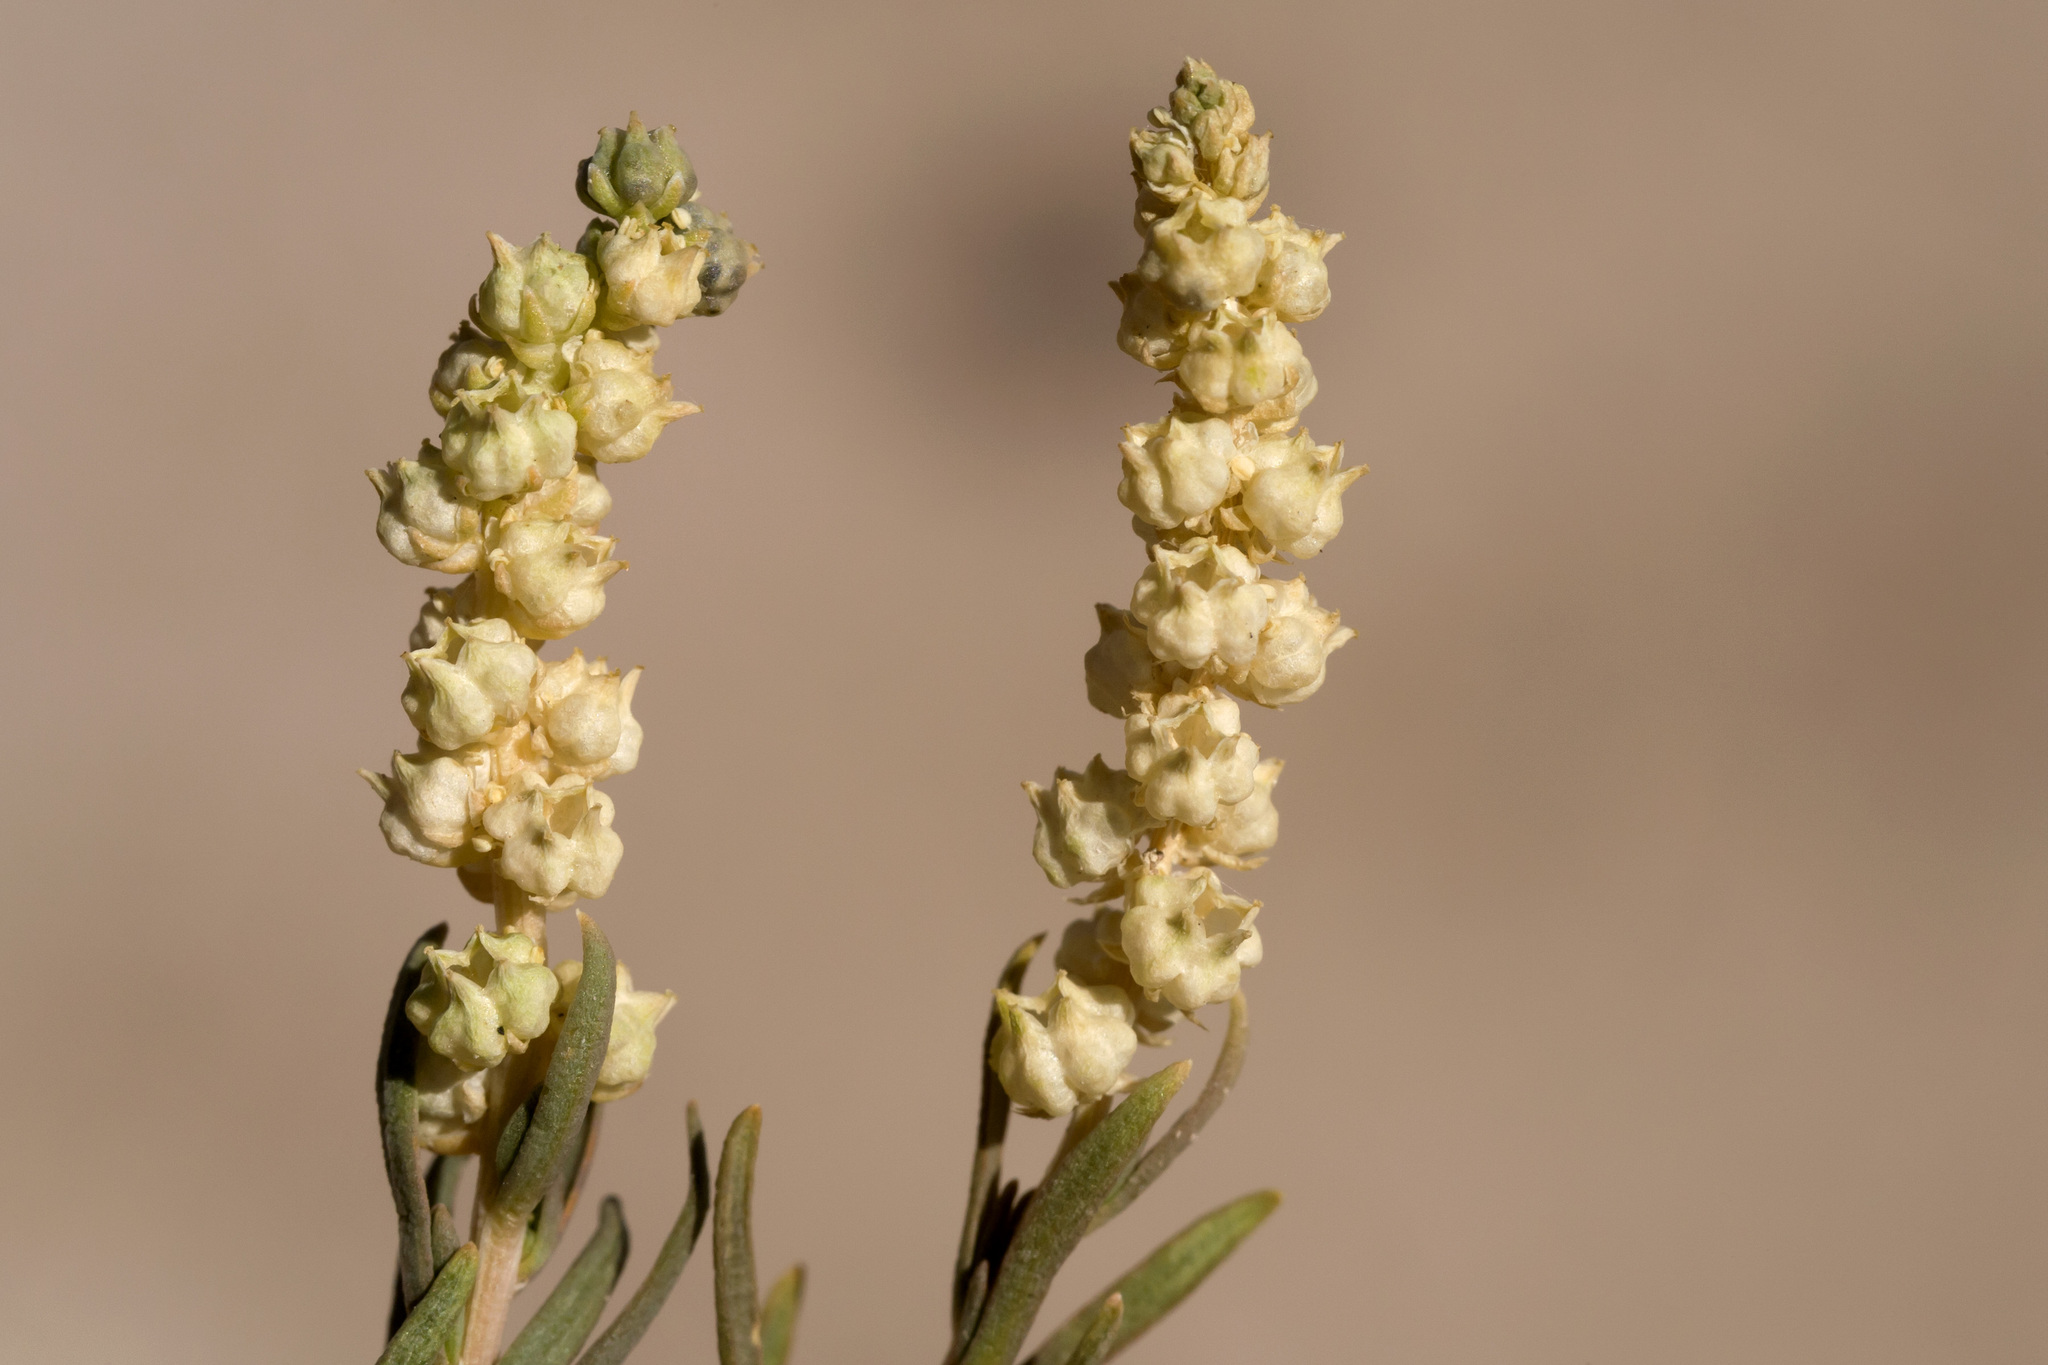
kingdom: Plantae
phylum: Tracheophyta
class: Magnoliopsida
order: Brassicales
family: Resedaceae
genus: Oligomeris
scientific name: Oligomeris linifolia
